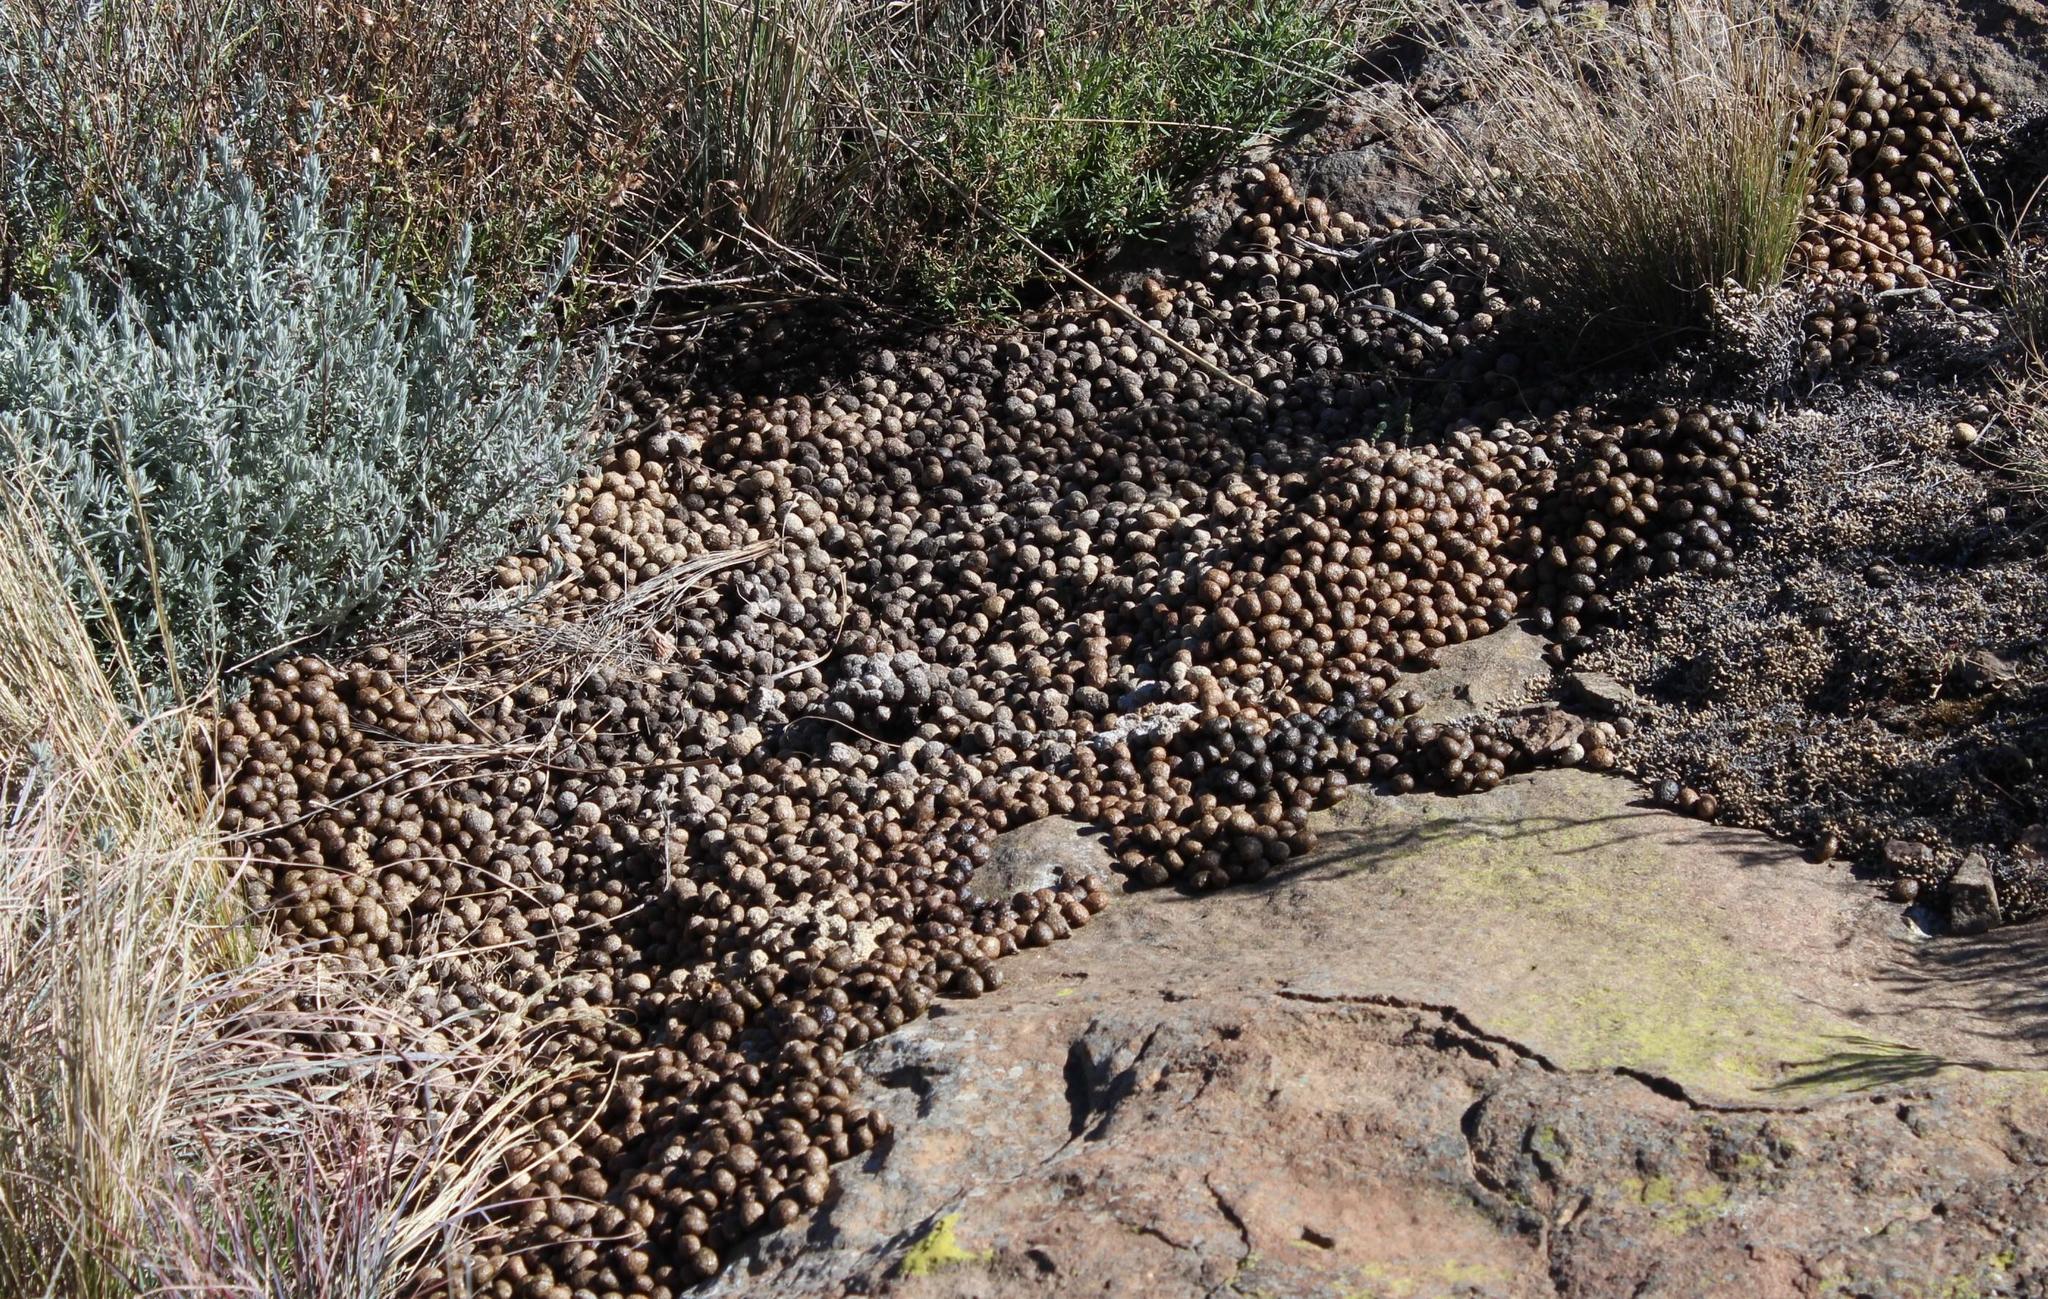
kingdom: Animalia
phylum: Chordata
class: Mammalia
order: Lagomorpha
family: Leporidae
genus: Pronolagus
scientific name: Pronolagus saundersiae
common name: Hewitt's red rock hare
